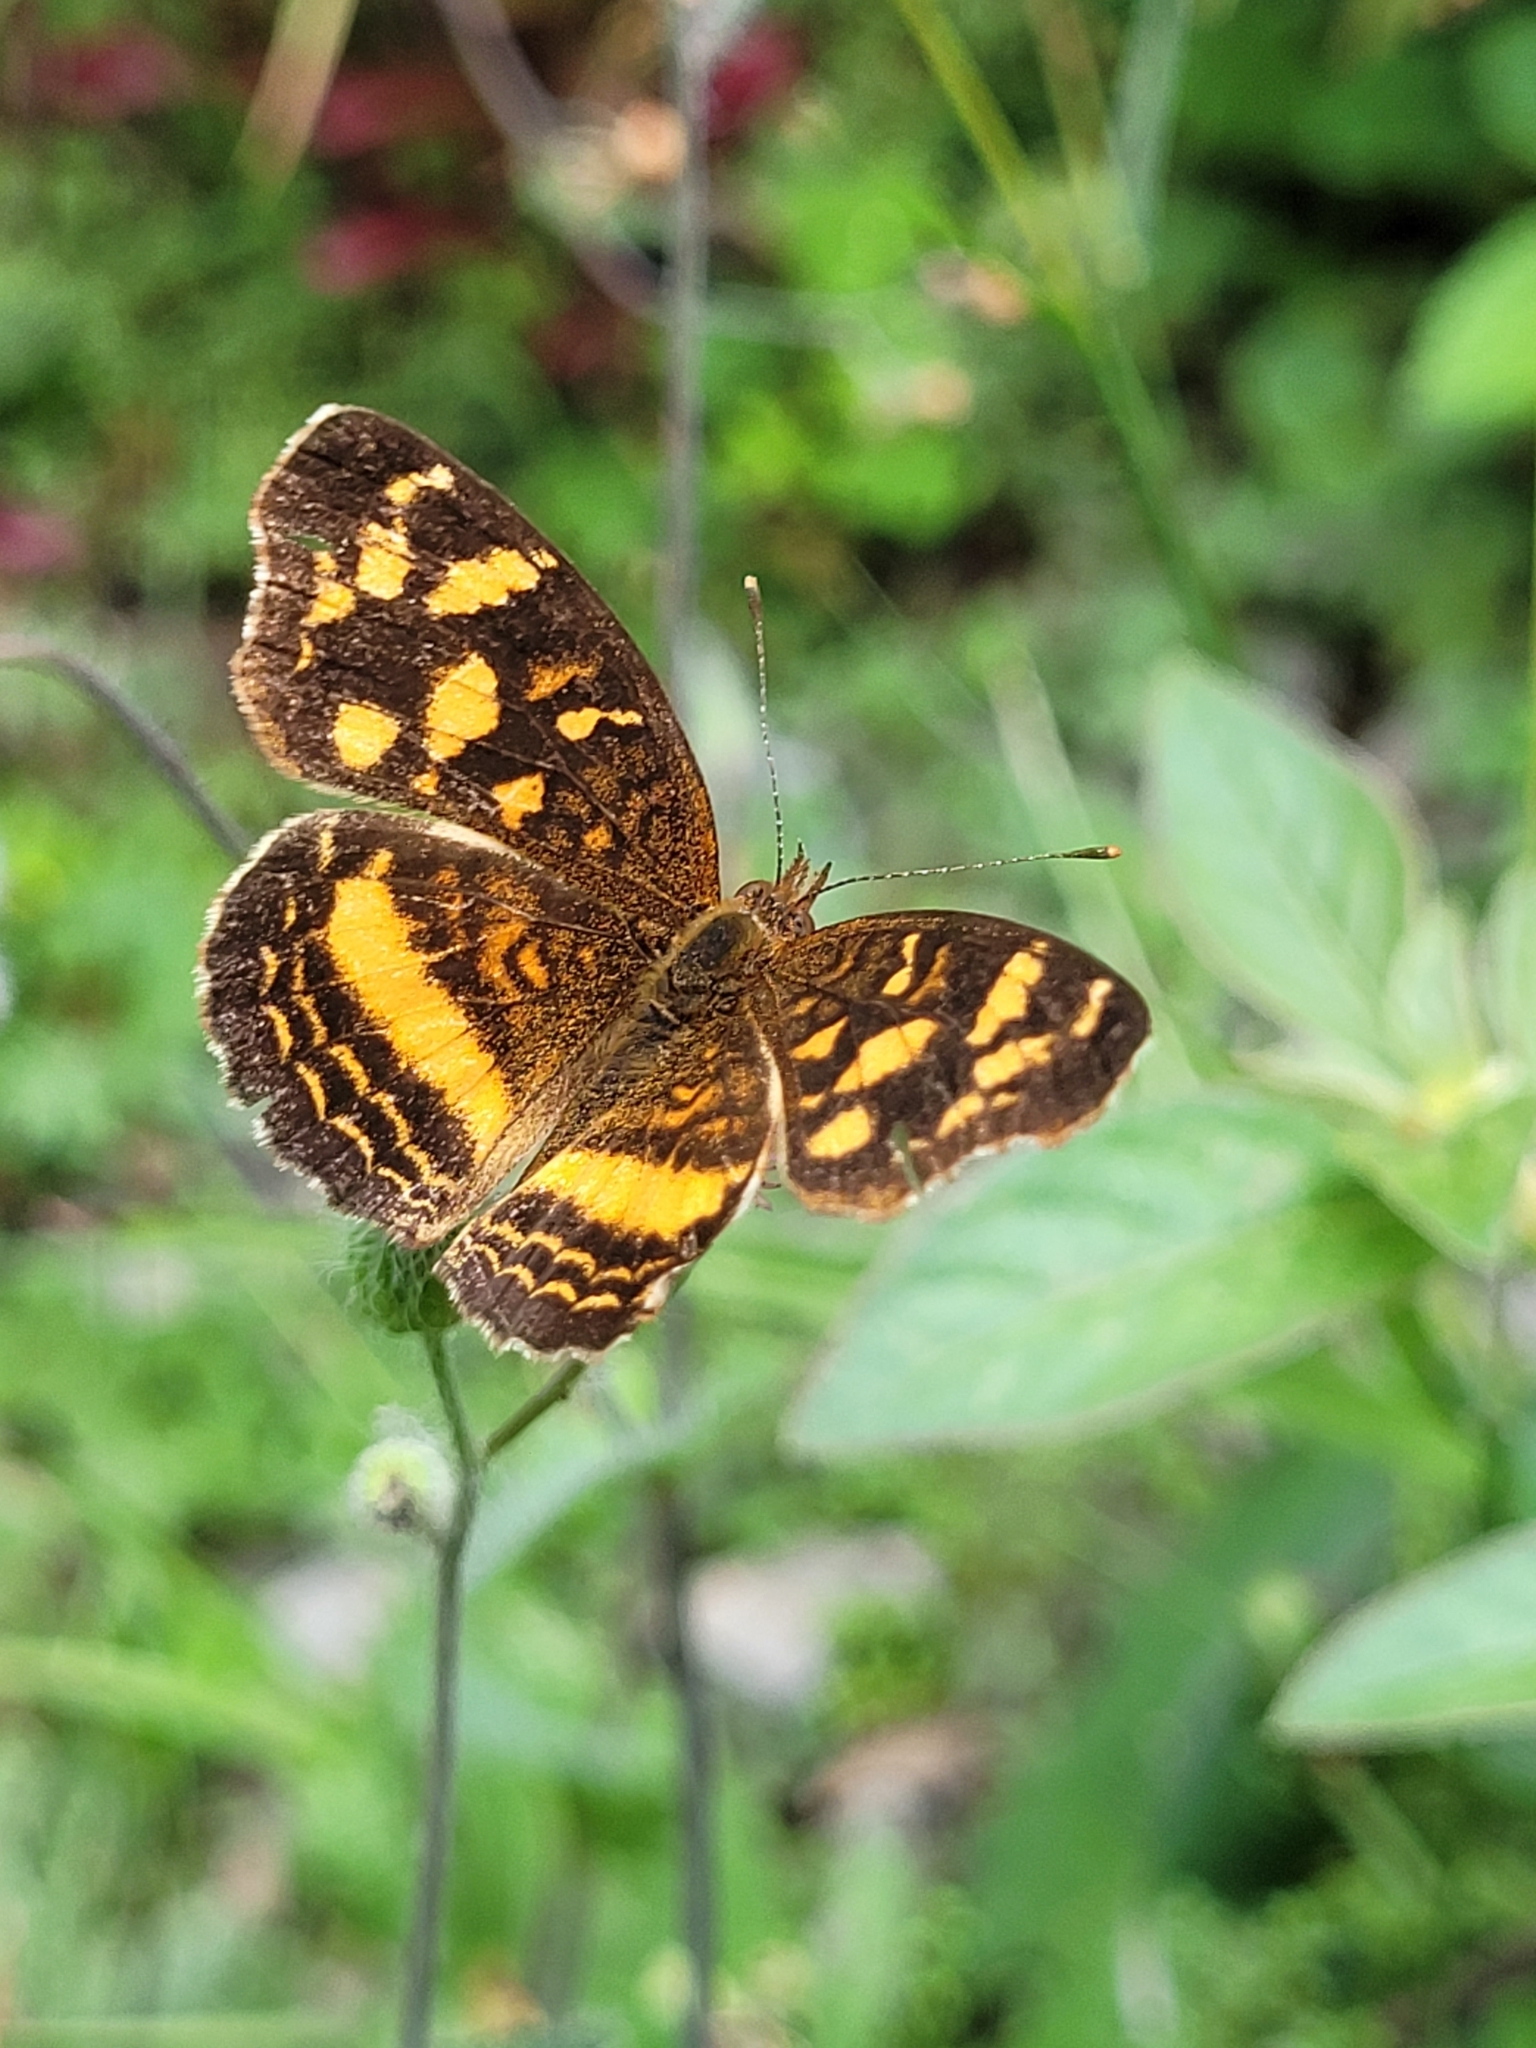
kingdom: Animalia
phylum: Arthropoda
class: Insecta
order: Lepidoptera
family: Nymphalidae
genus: Anthanassa
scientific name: Anthanassa drusilla
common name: Orange-patched crescent
